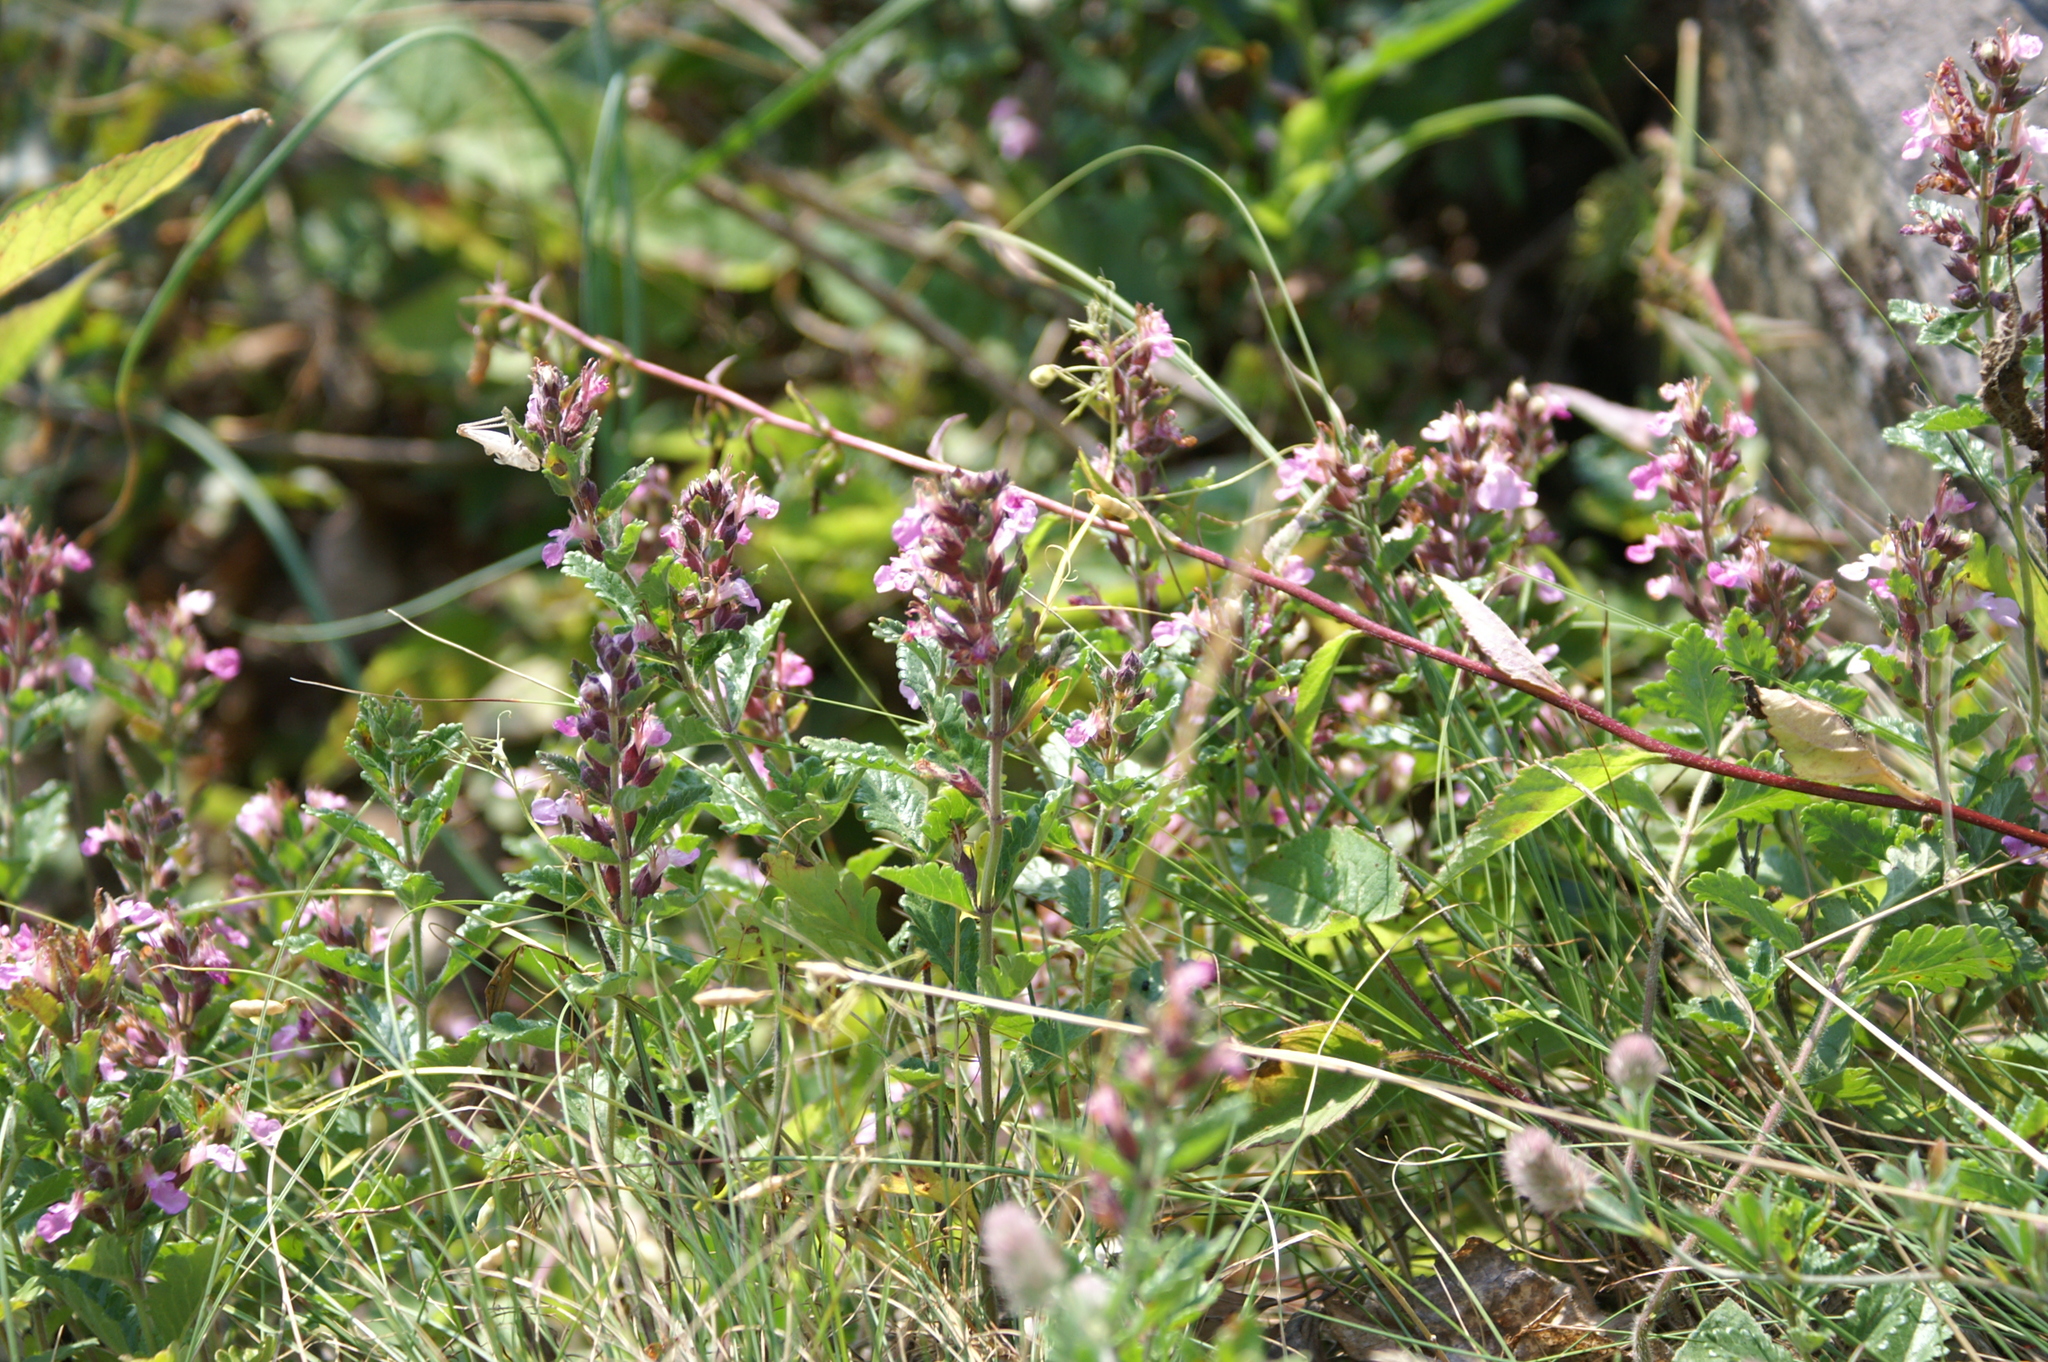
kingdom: Plantae
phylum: Tracheophyta
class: Magnoliopsida
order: Lamiales
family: Lamiaceae
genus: Teucrium
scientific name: Teucrium chamaedrys
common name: Wall germander
